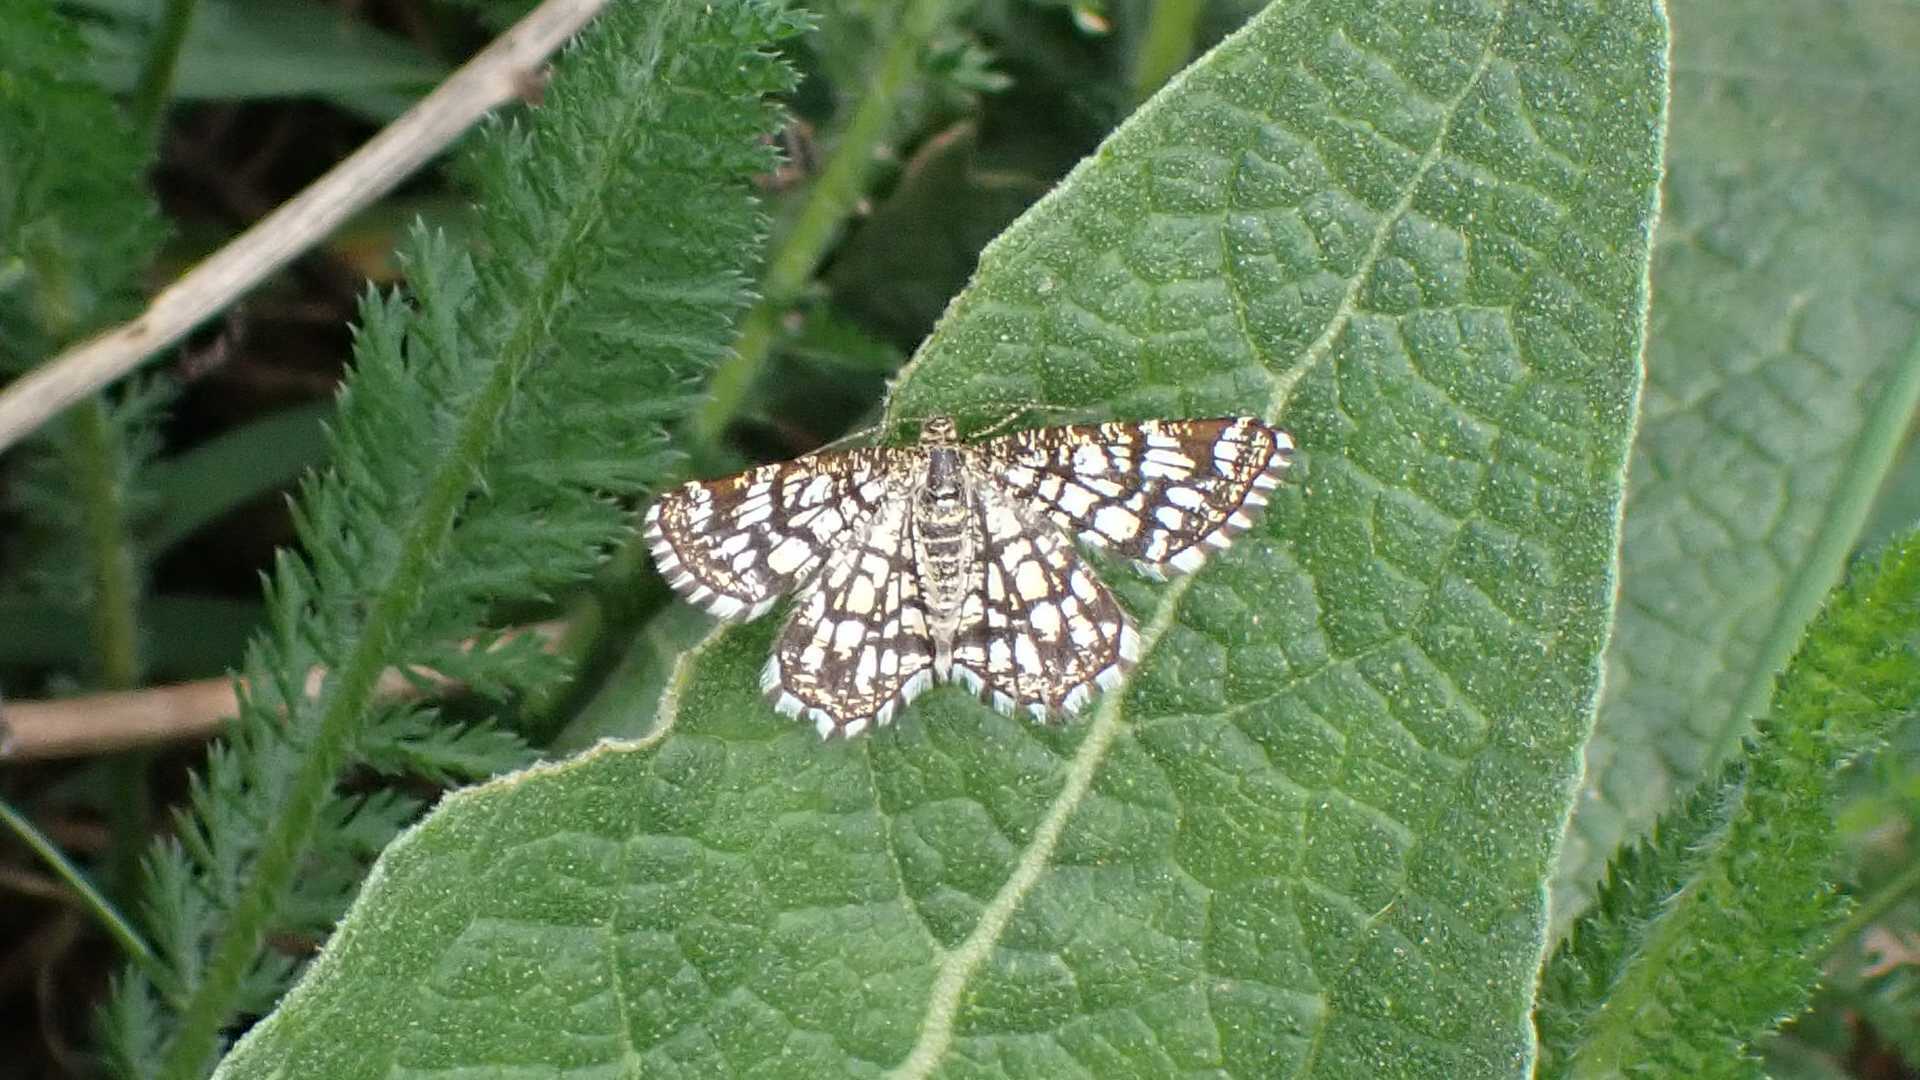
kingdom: Animalia
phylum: Arthropoda
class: Insecta
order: Lepidoptera
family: Geometridae
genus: Chiasmia
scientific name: Chiasmia clathrata
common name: Latticed heath
